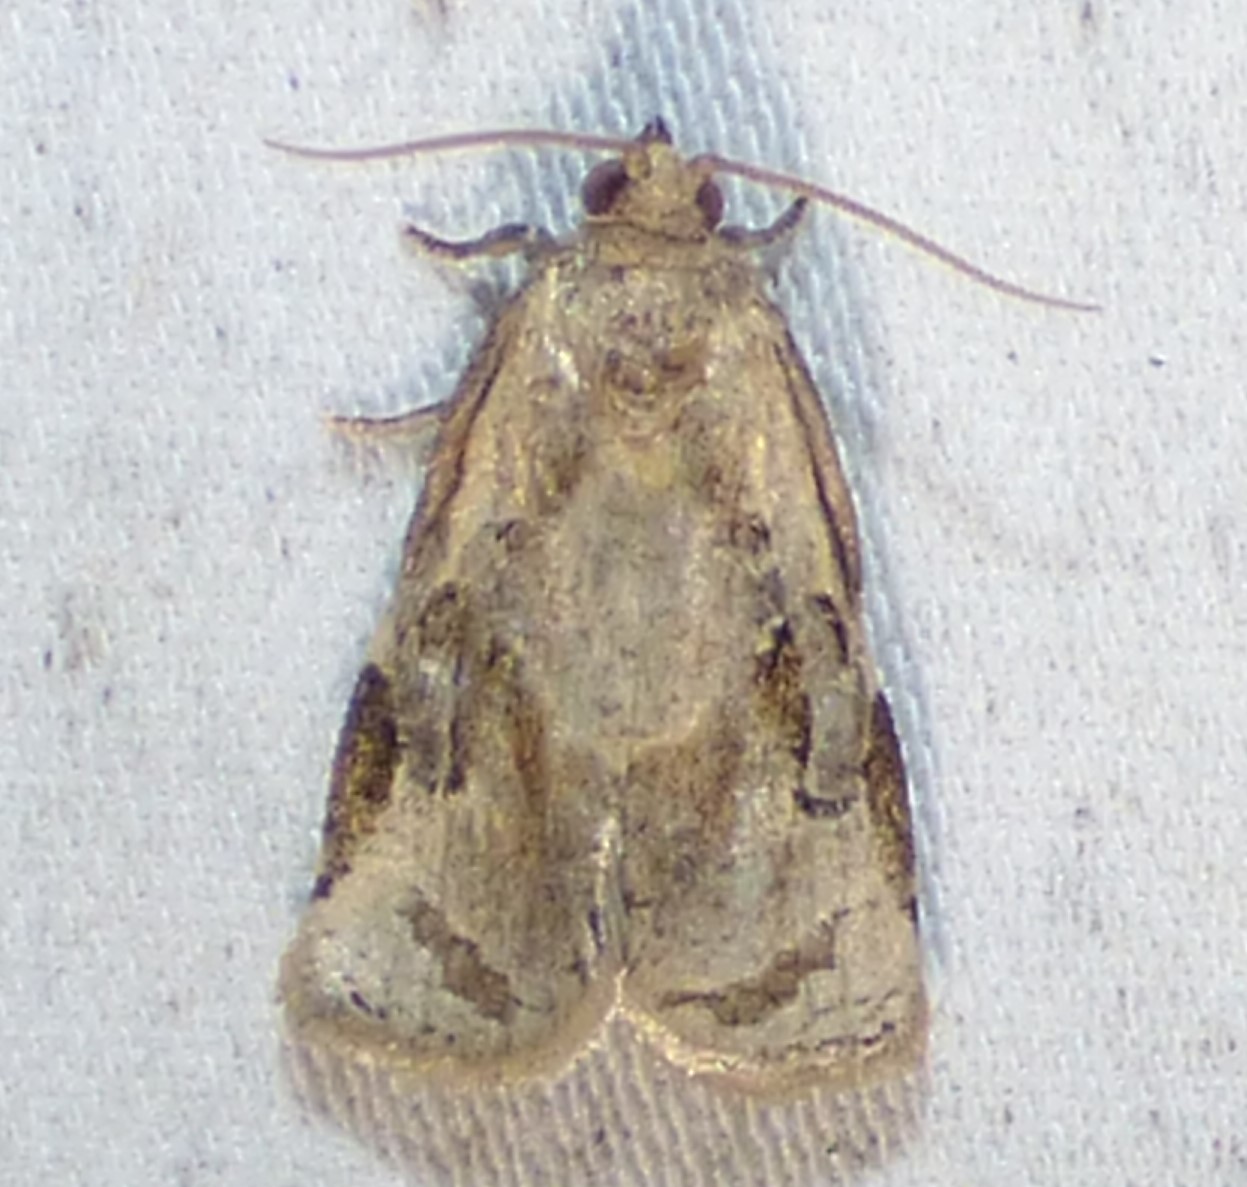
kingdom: Animalia
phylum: Arthropoda
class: Insecta
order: Lepidoptera
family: Tortricidae
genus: Archips
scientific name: Archips grisea
